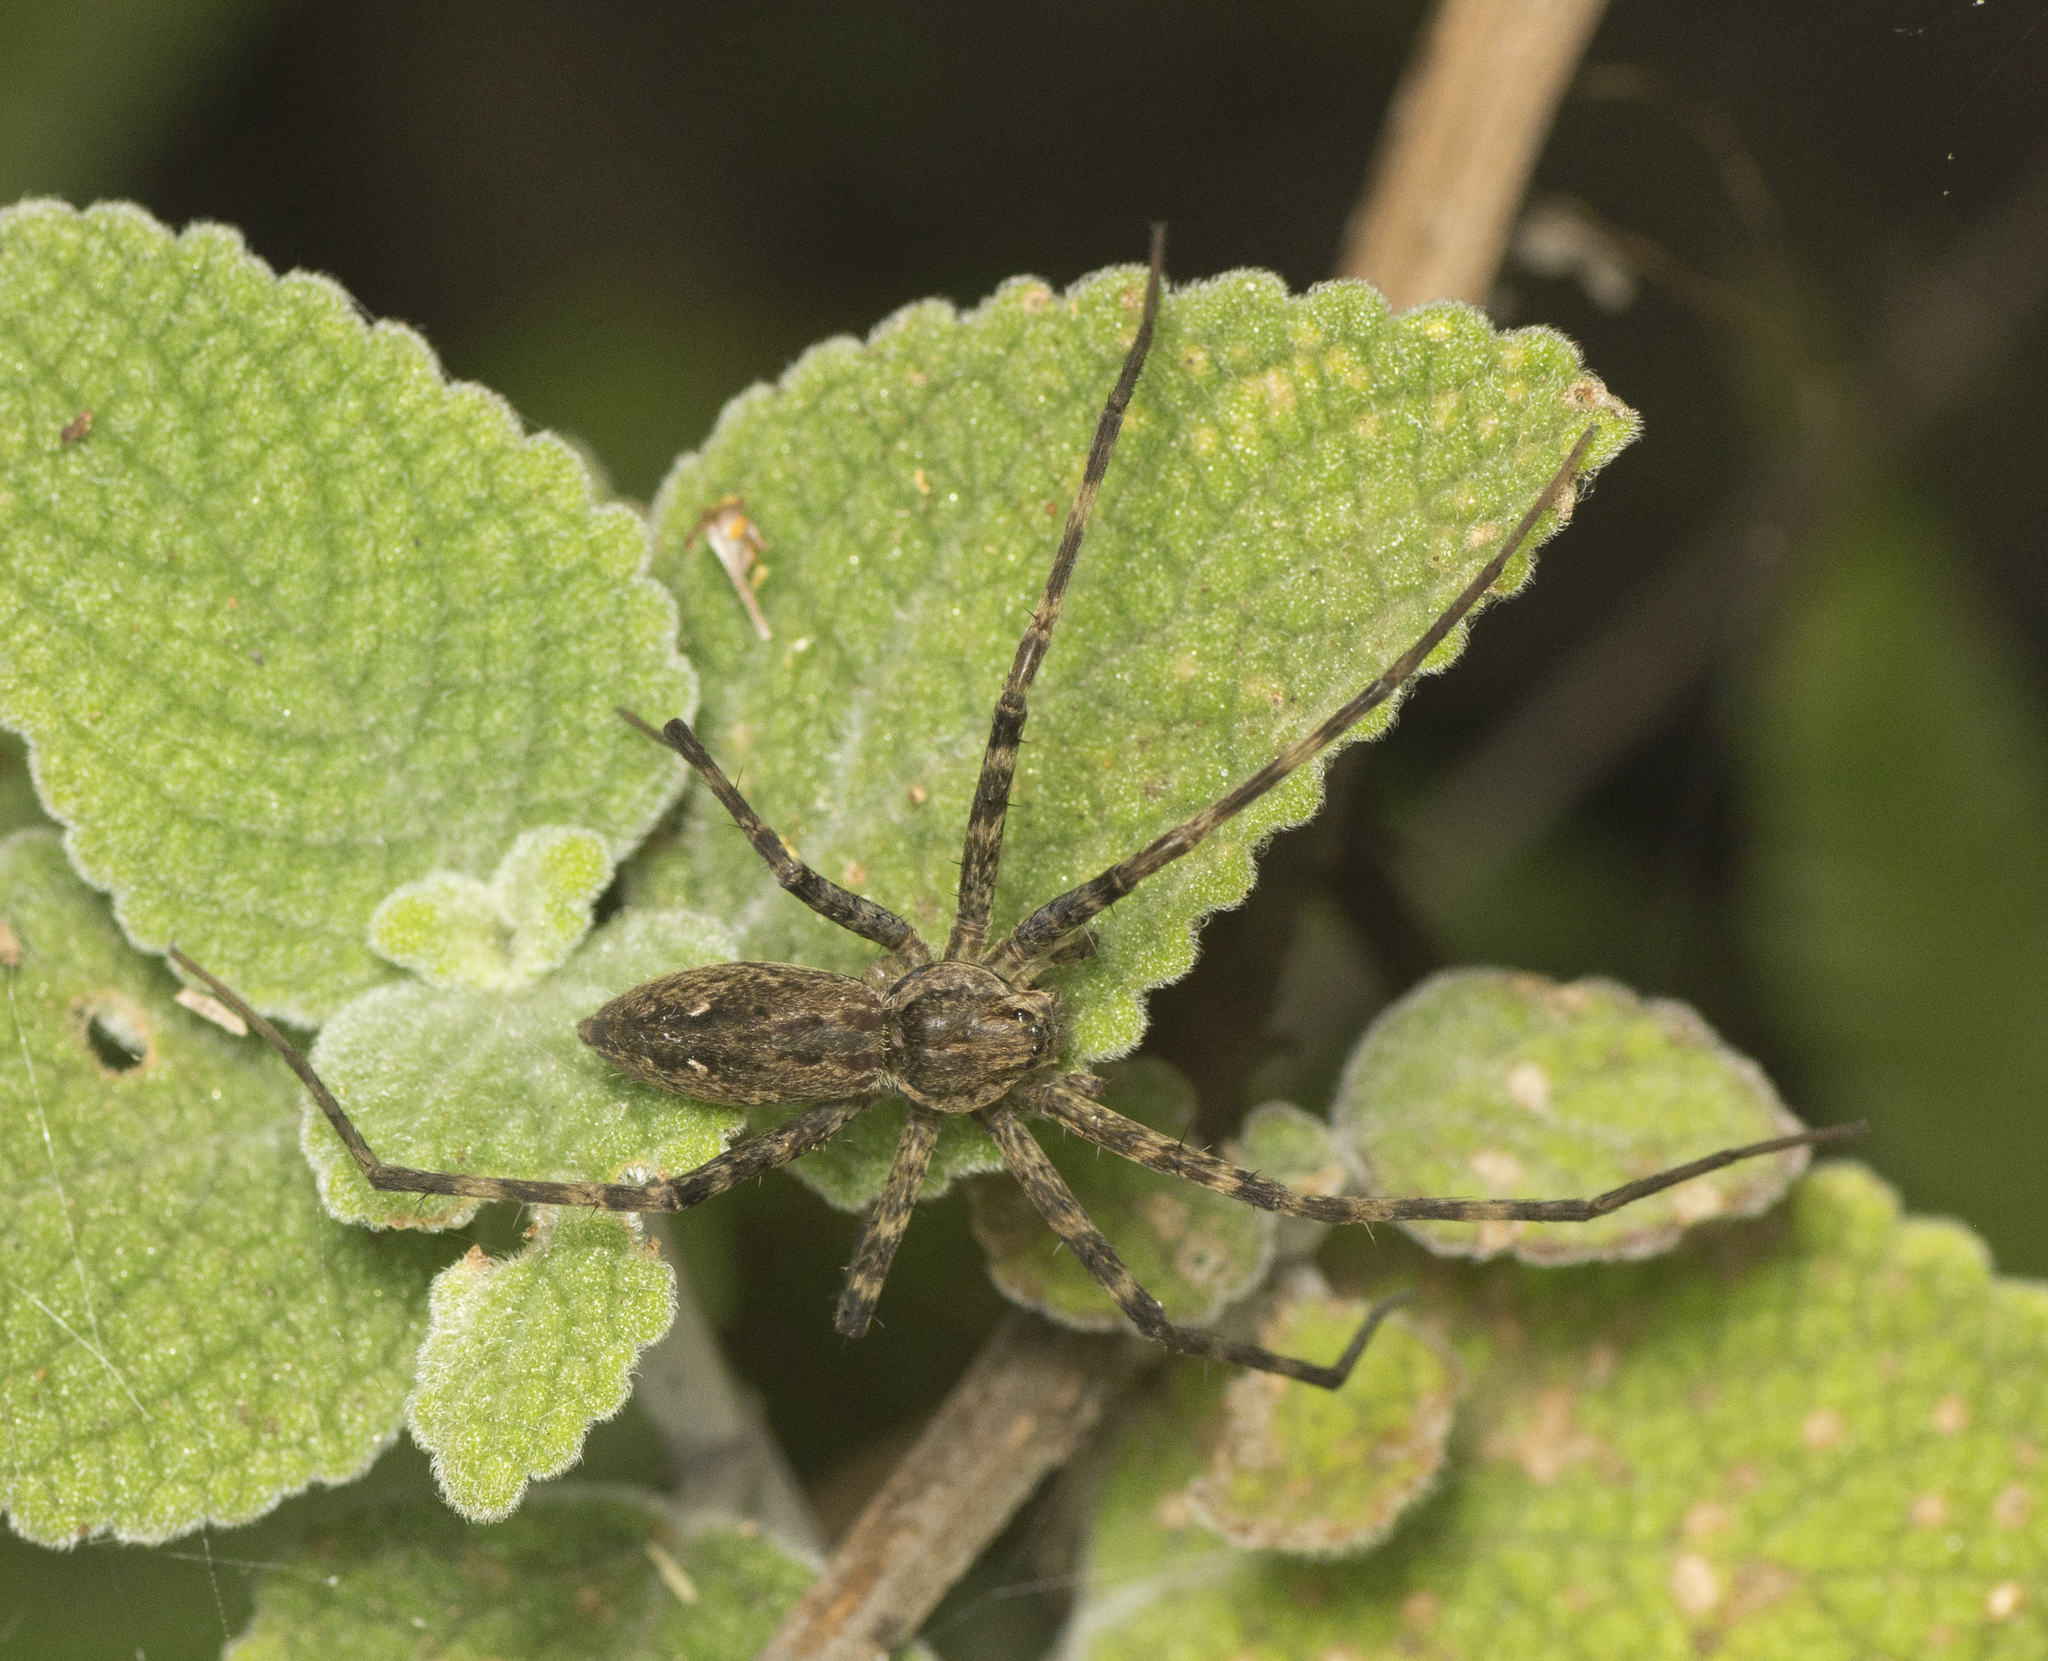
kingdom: Animalia
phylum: Arthropoda
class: Arachnida
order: Araneae
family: Pisauridae
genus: Megadolomedes
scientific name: Megadolomedes trux
